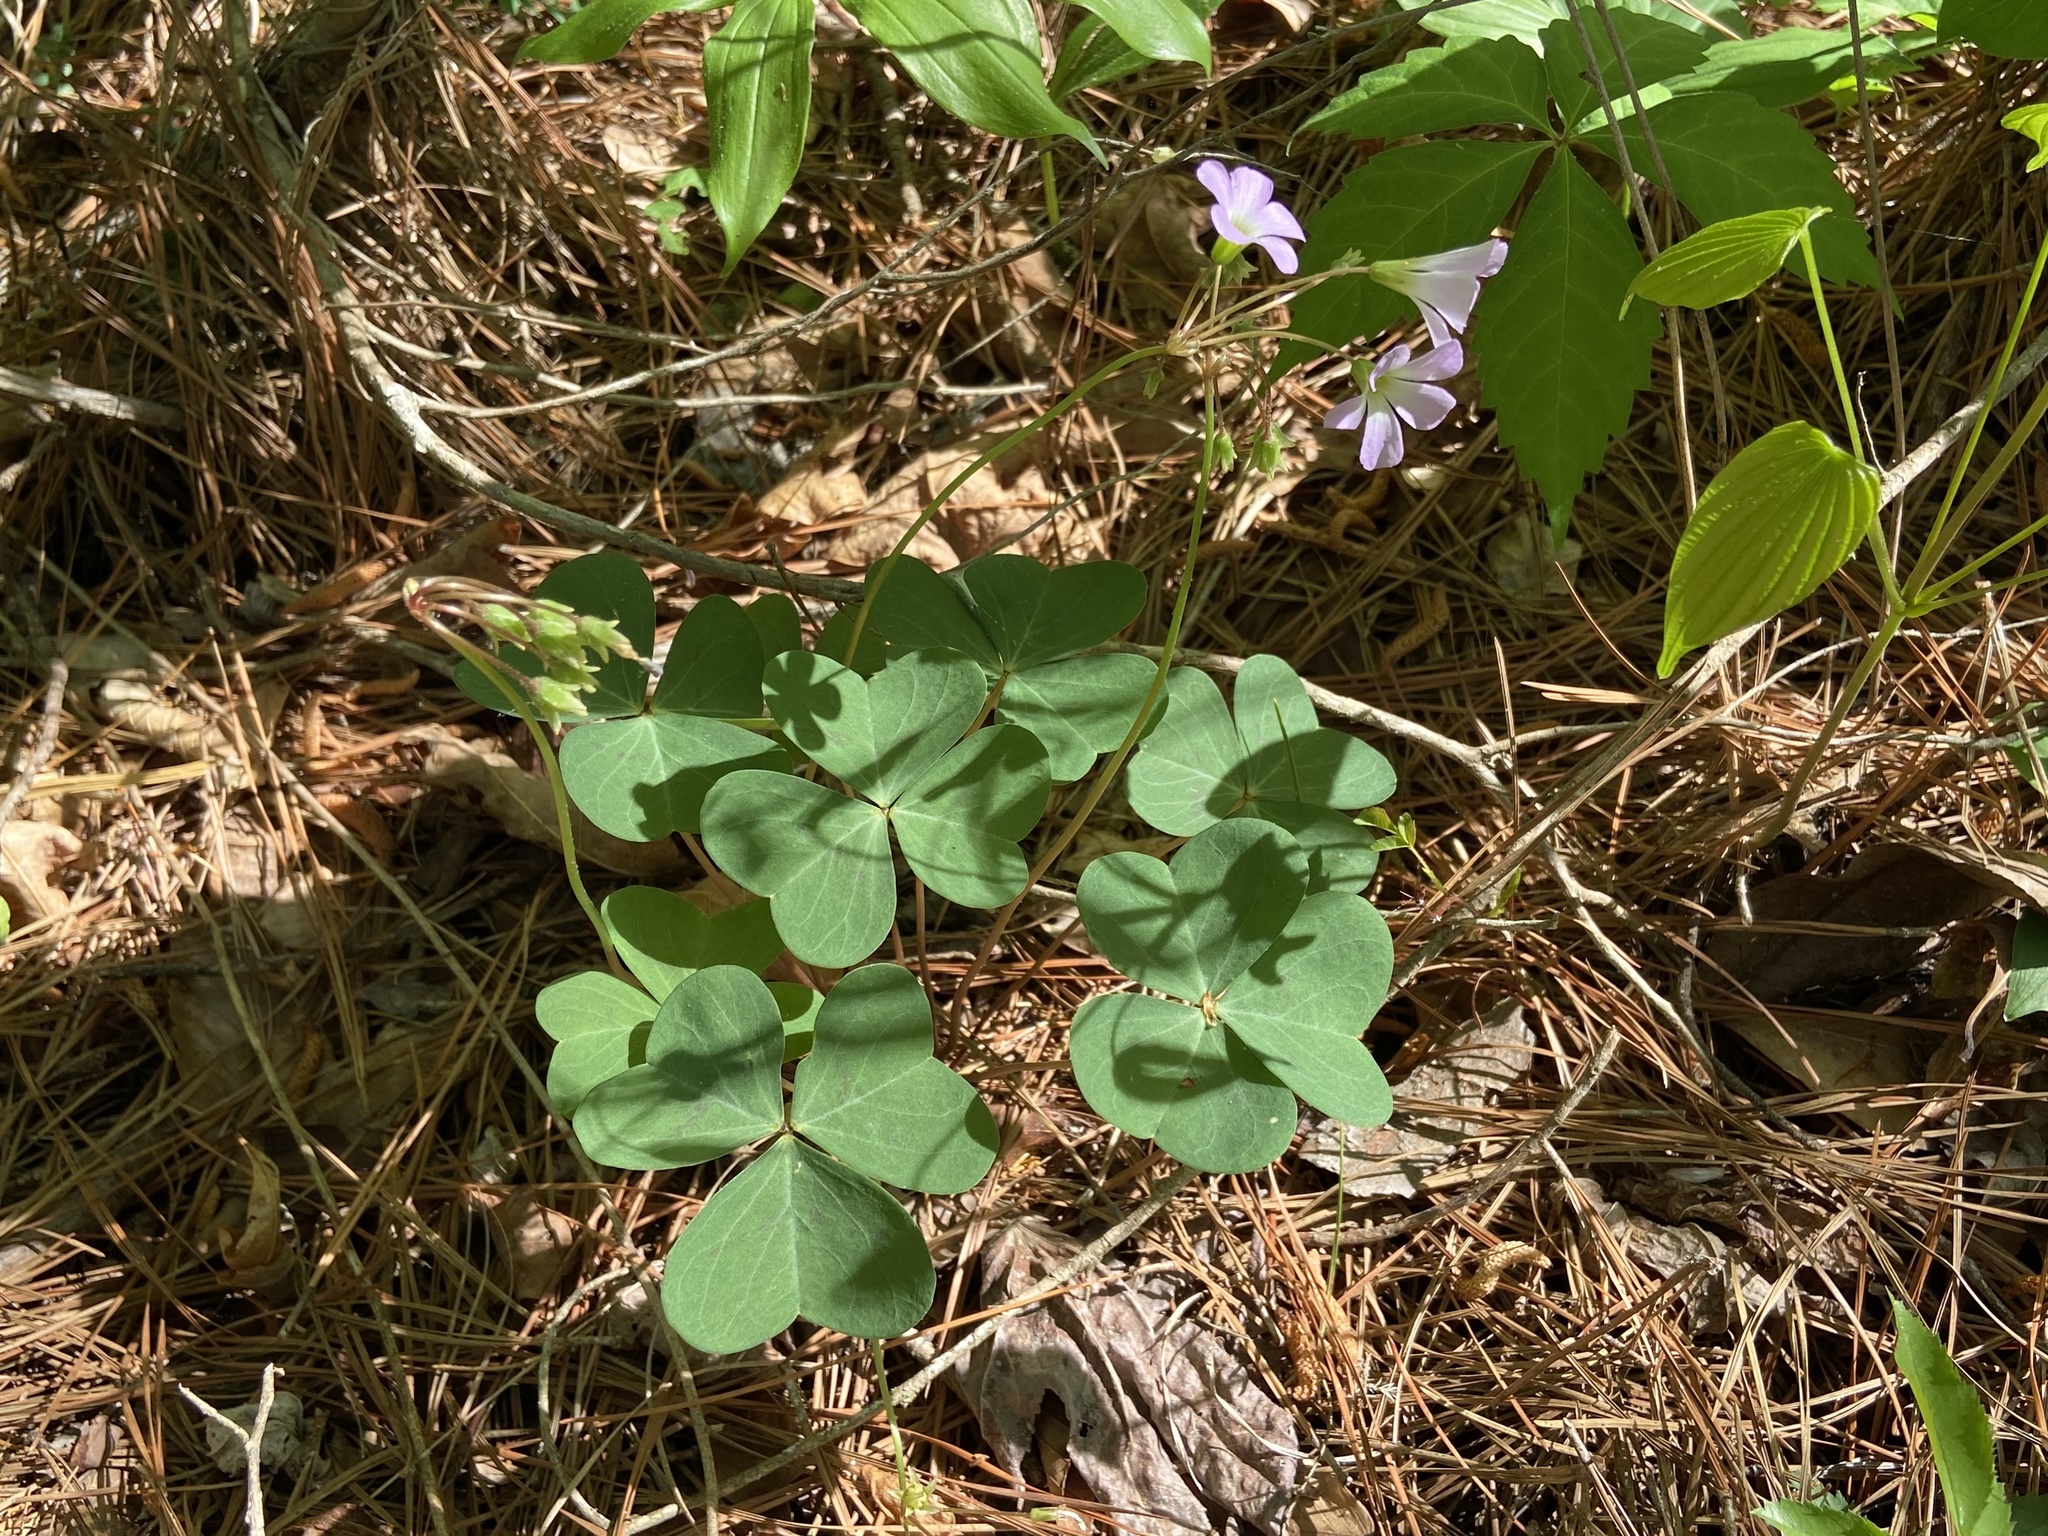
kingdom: Plantae
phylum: Tracheophyta
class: Magnoliopsida
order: Oxalidales
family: Oxalidaceae
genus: Oxalis
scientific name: Oxalis violacea
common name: Violet wood-sorrel
